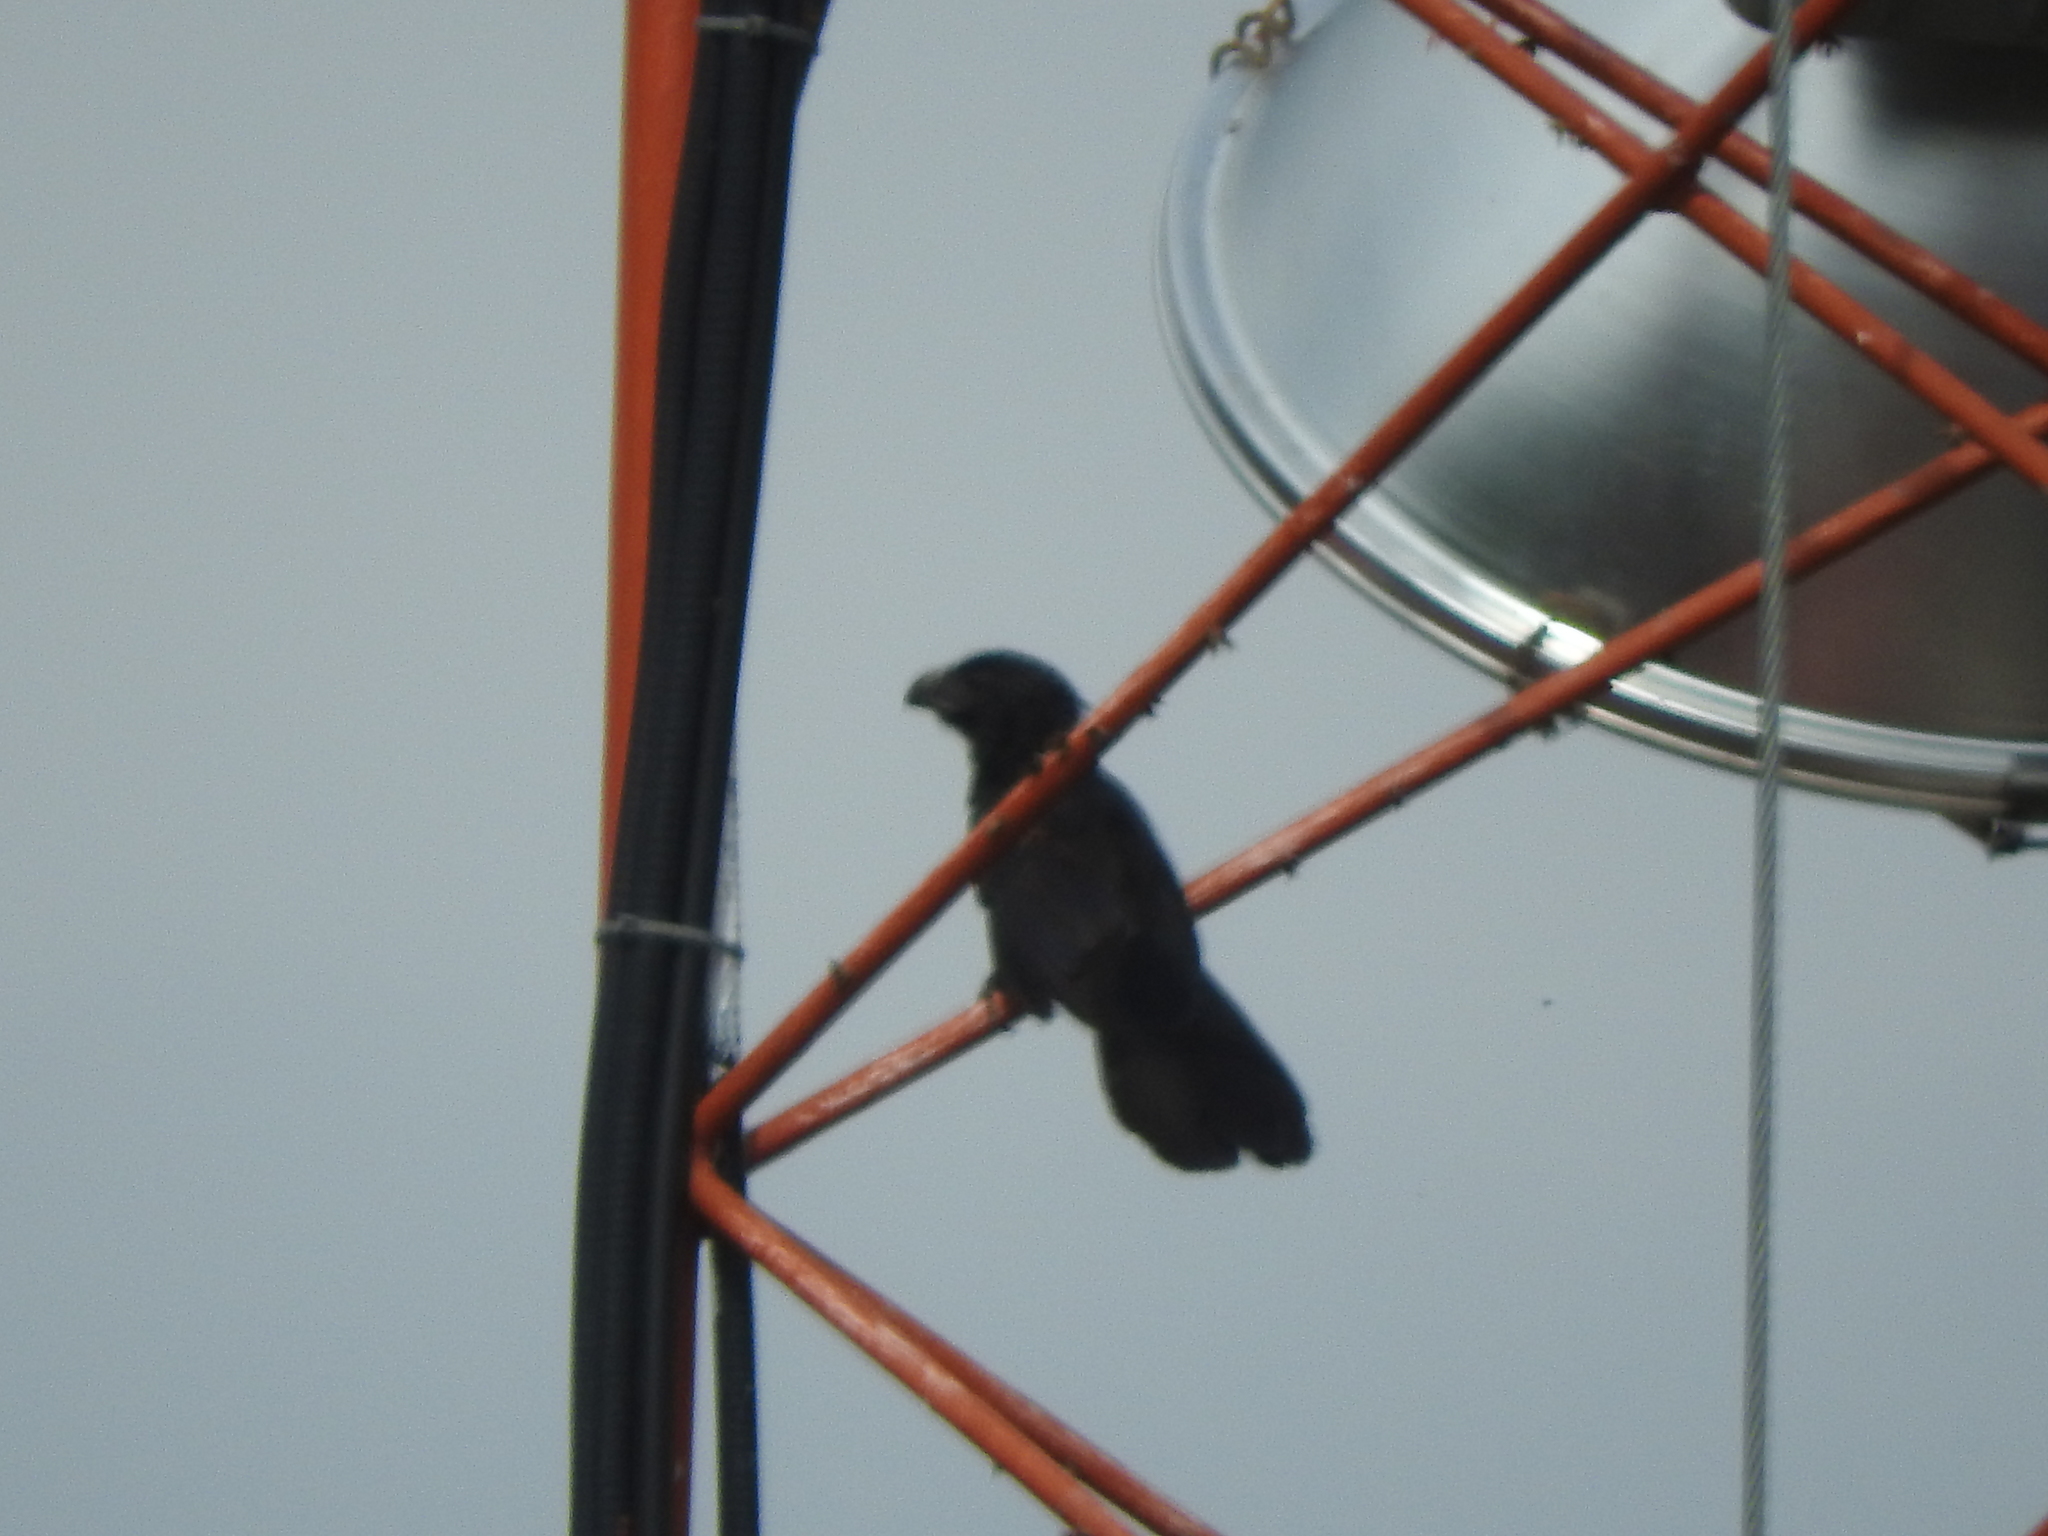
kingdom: Animalia
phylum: Chordata
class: Aves
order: Cuculiformes
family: Cuculidae
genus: Crotophaga
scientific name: Crotophaga sulcirostris
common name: Groove-billed ani
